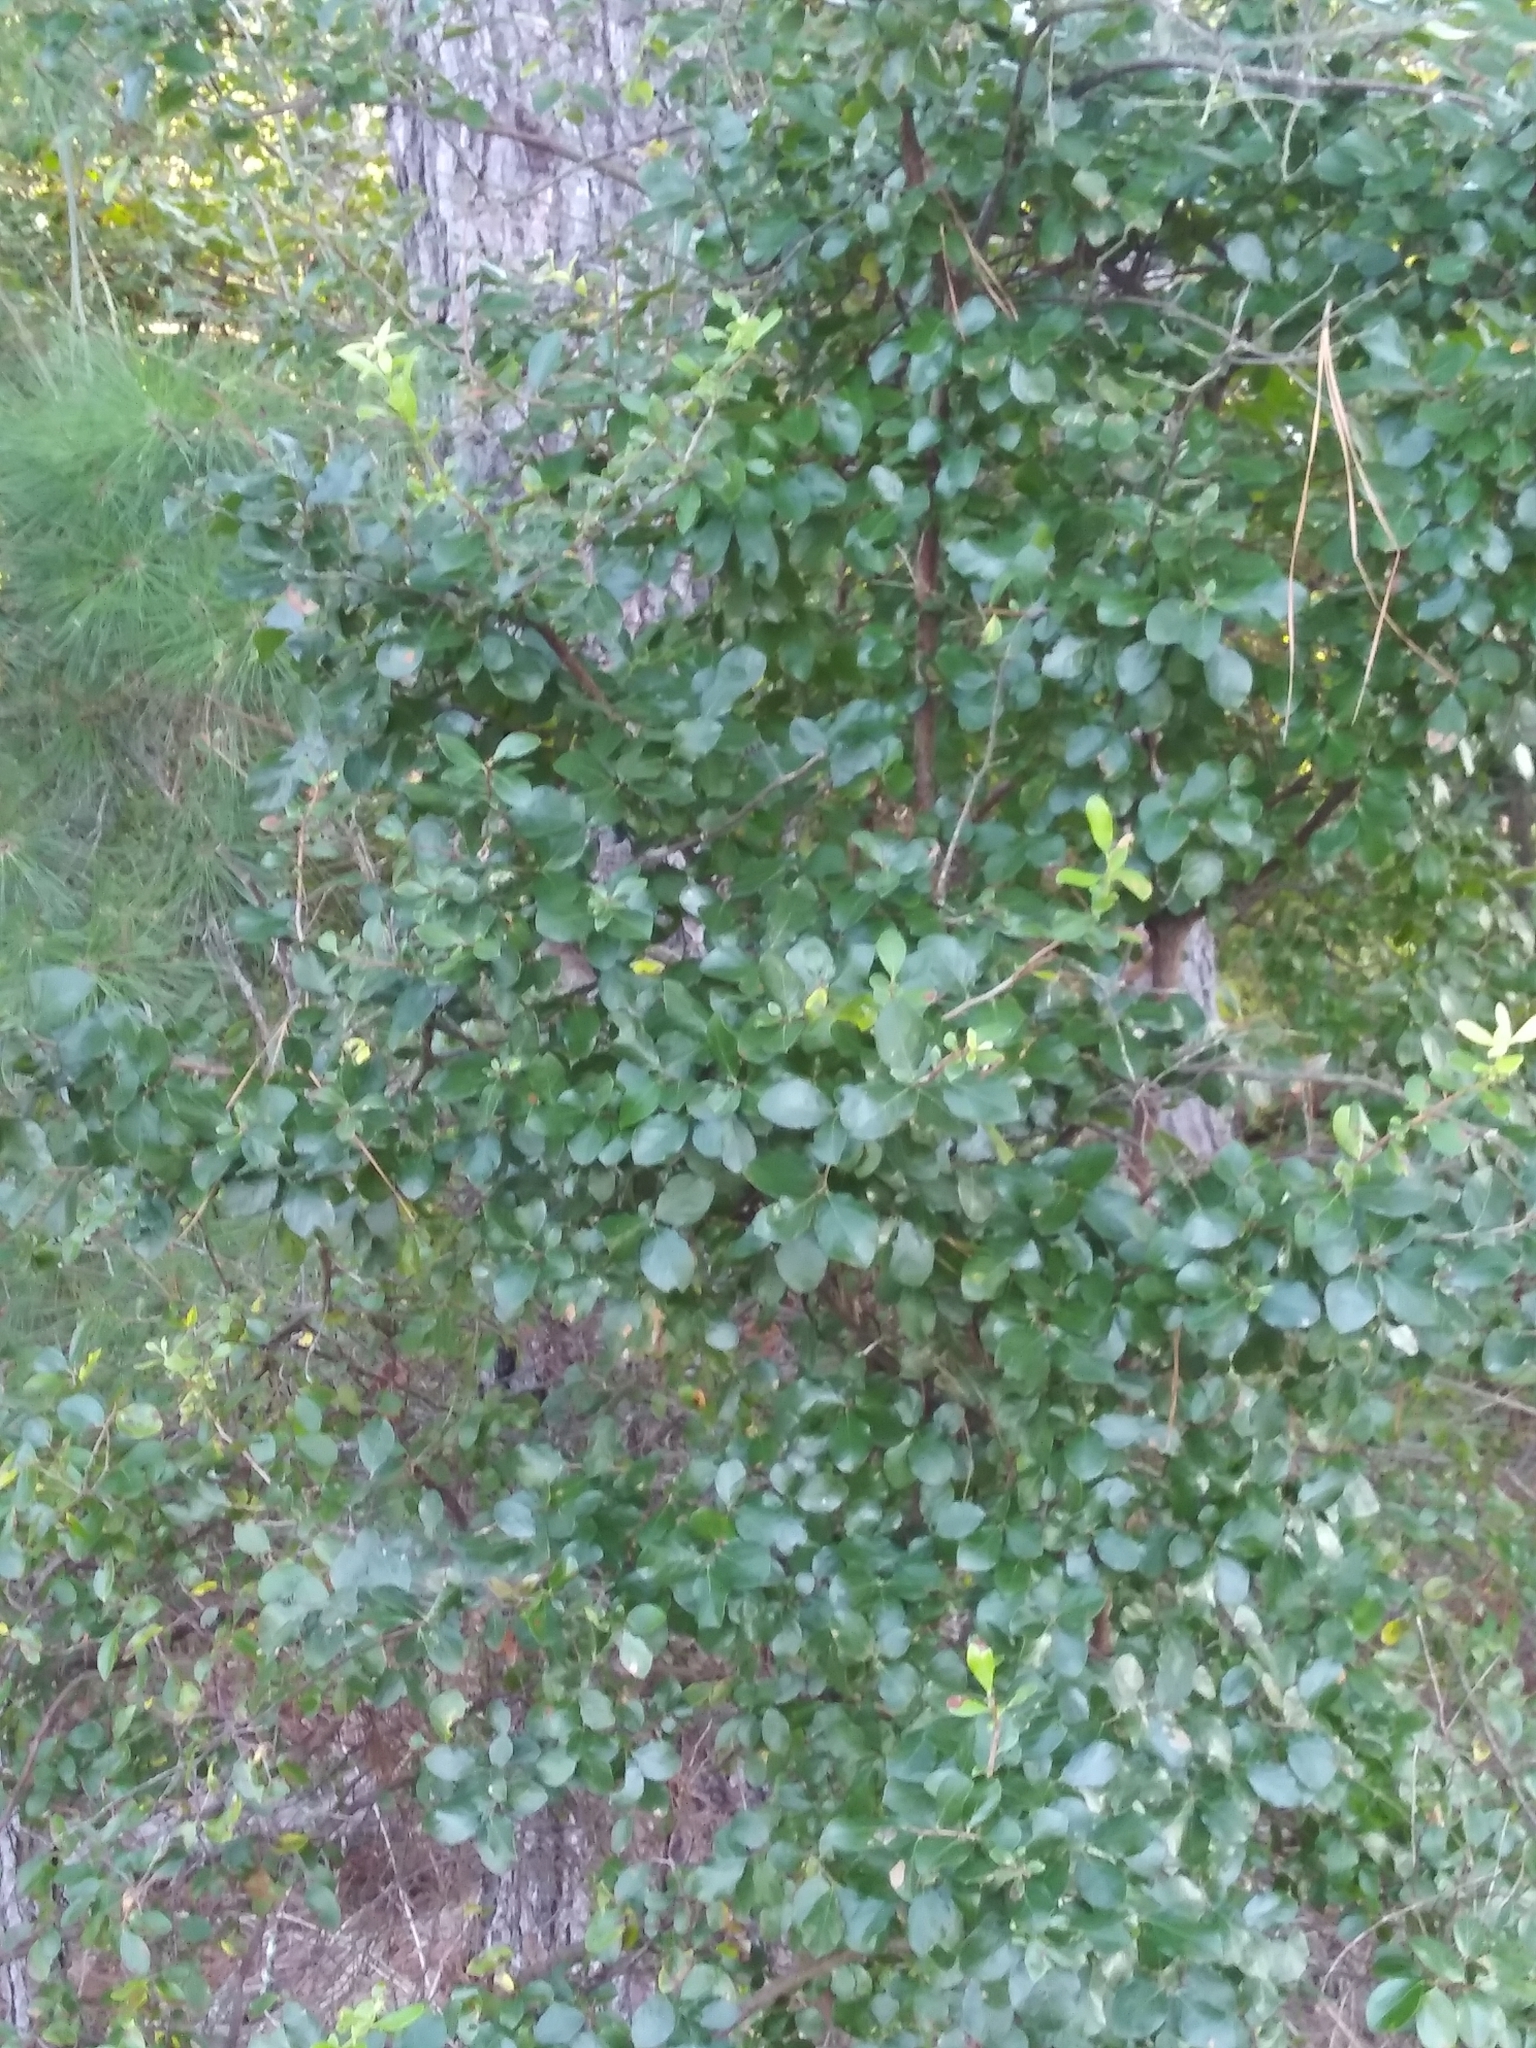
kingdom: Plantae
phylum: Tracheophyta
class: Magnoliopsida
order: Ericales
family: Ericaceae
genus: Vaccinium
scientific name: Vaccinium arboreum
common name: Farkleberry
